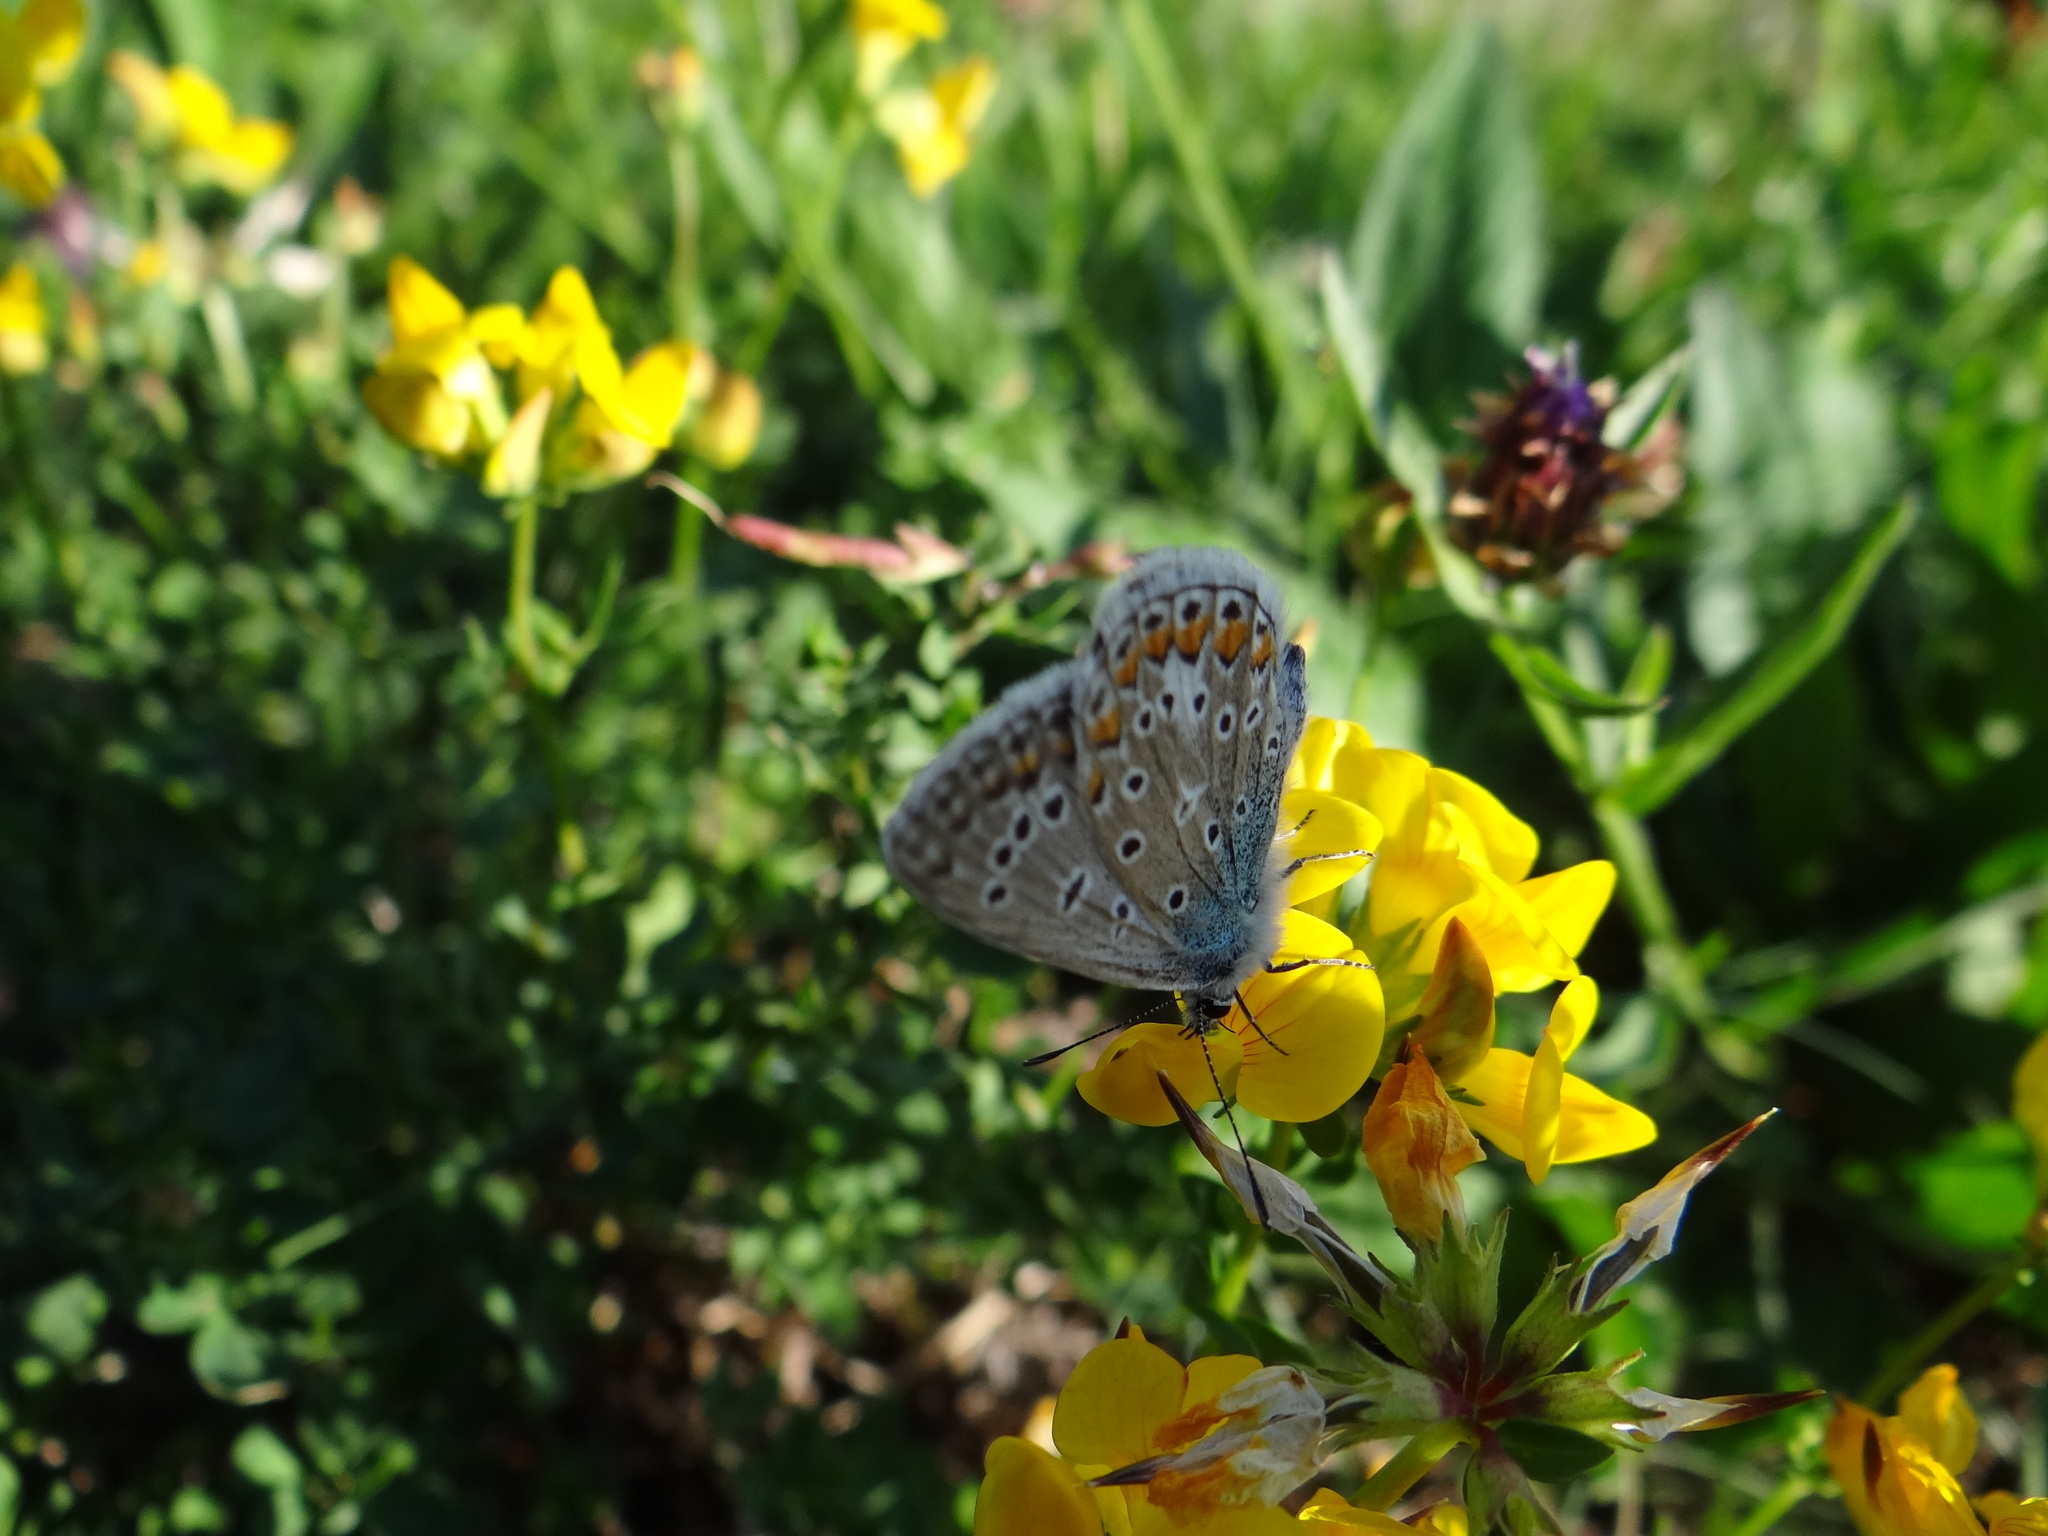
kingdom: Animalia
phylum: Arthropoda
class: Insecta
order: Lepidoptera
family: Lycaenidae
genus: Polyommatus
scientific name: Polyommatus icarus
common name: Common blue
